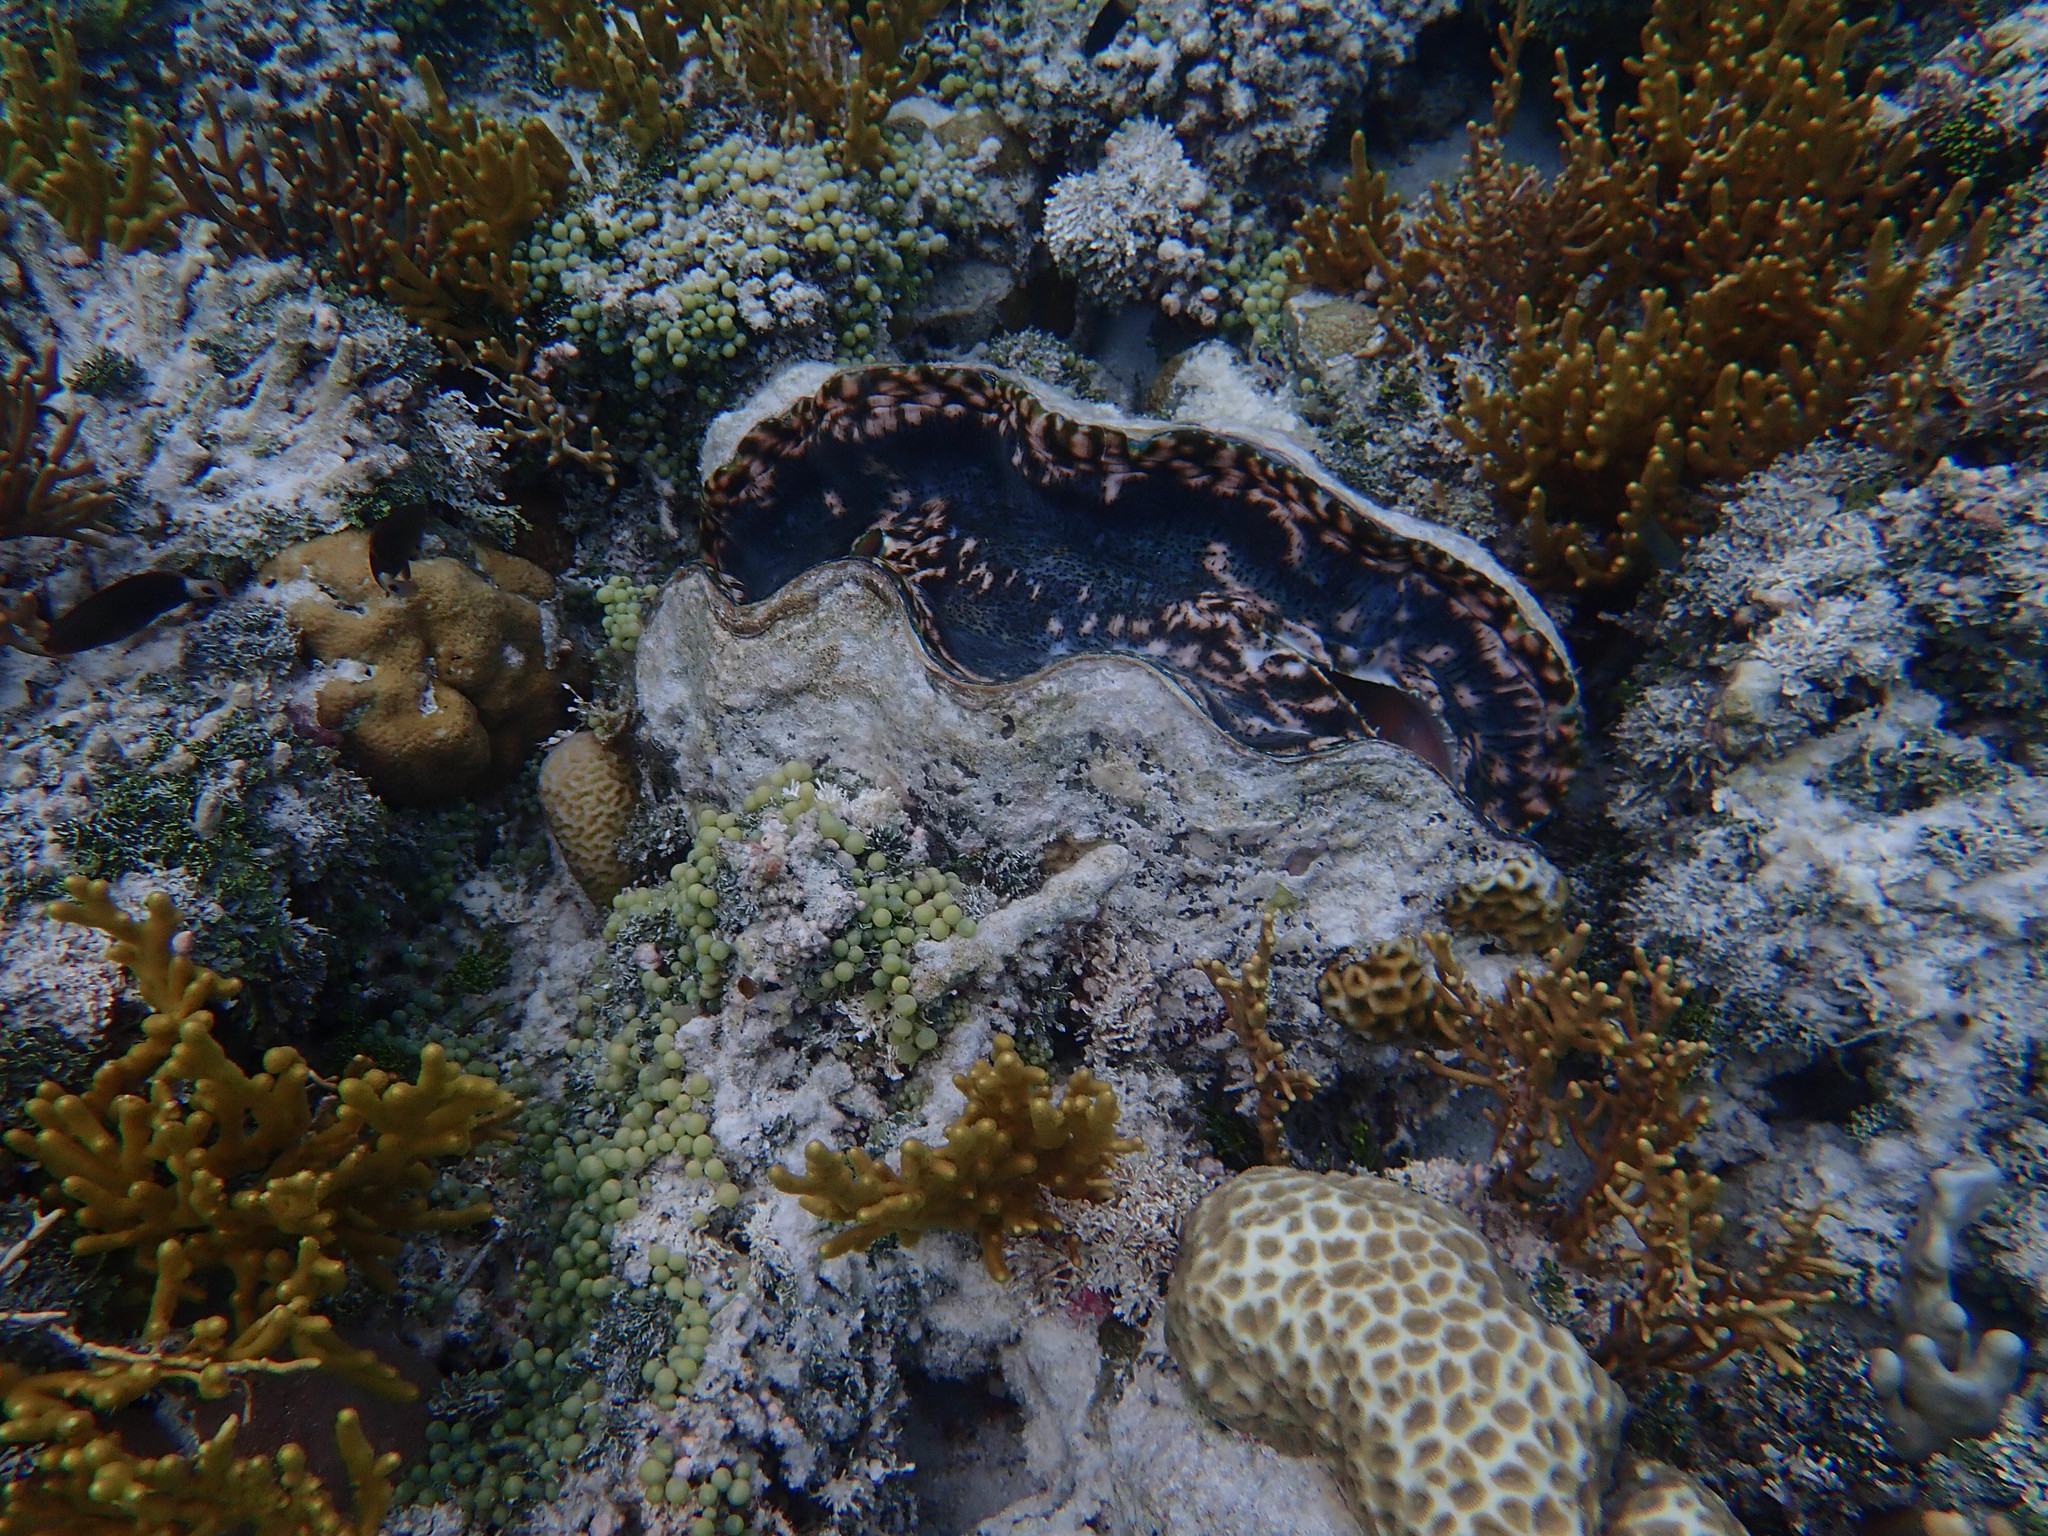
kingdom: Animalia
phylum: Mollusca
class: Bivalvia
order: Cardiida
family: Cardiidae
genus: Tridacna
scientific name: Tridacna derasa
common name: Southern giant clam
